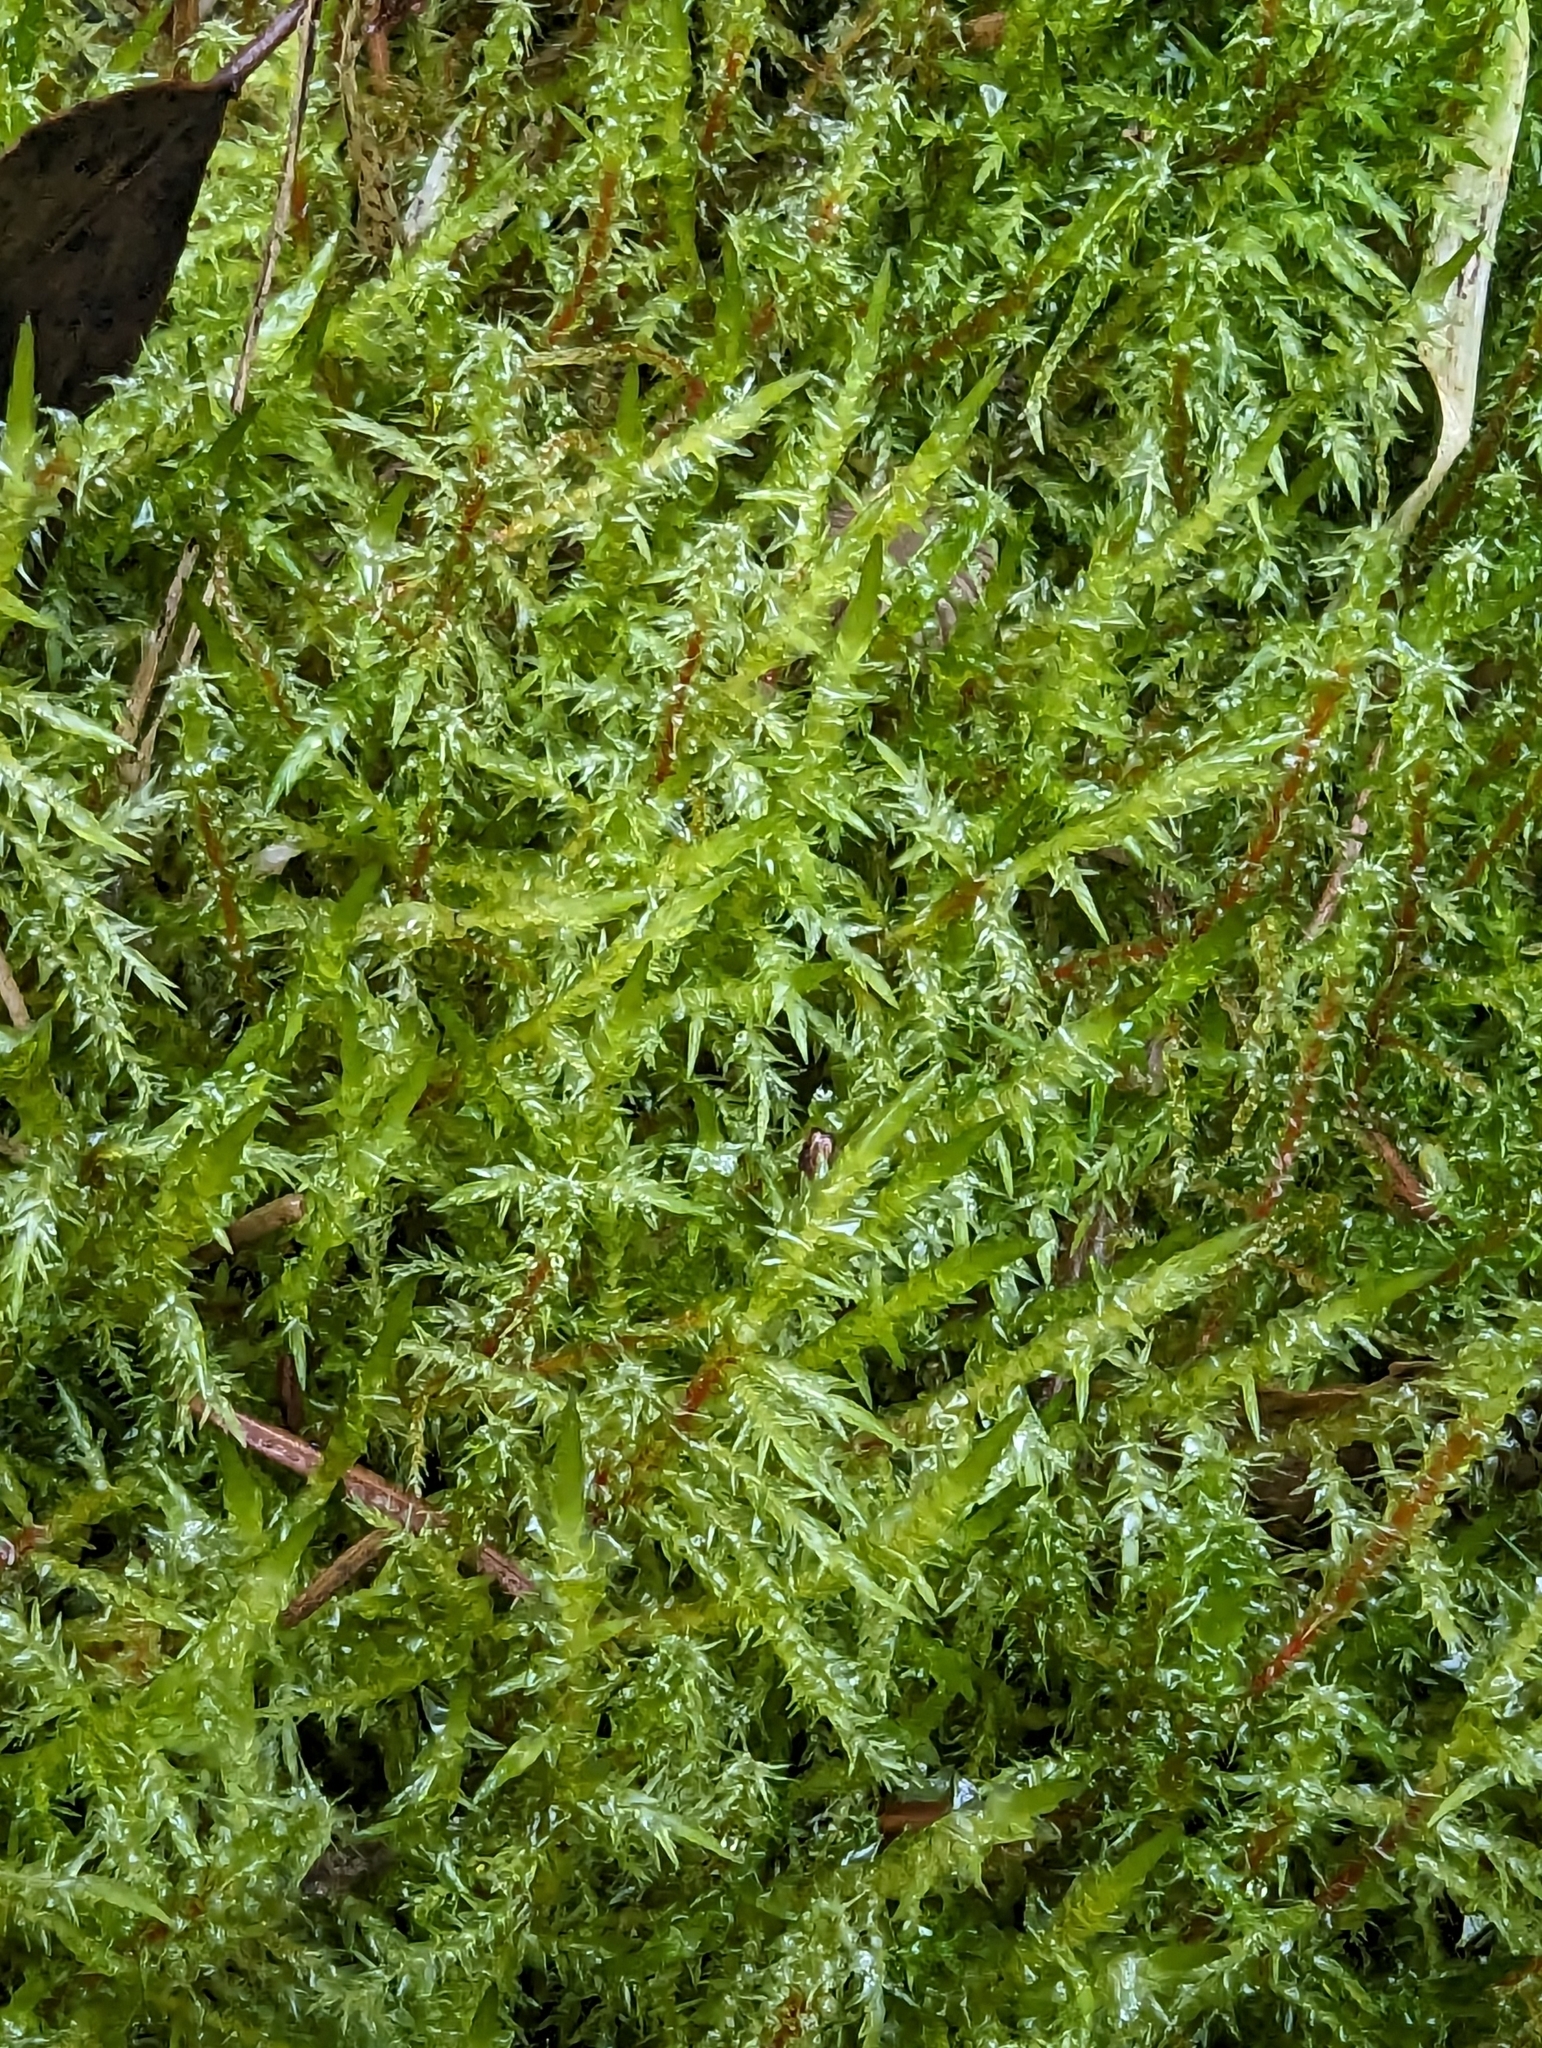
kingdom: Plantae
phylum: Bryophyta
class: Bryopsida
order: Hypnales
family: Hylocomiaceae
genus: Rhytidiadelphus
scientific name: Rhytidiadelphus squarrosus
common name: Springy turf-moss
